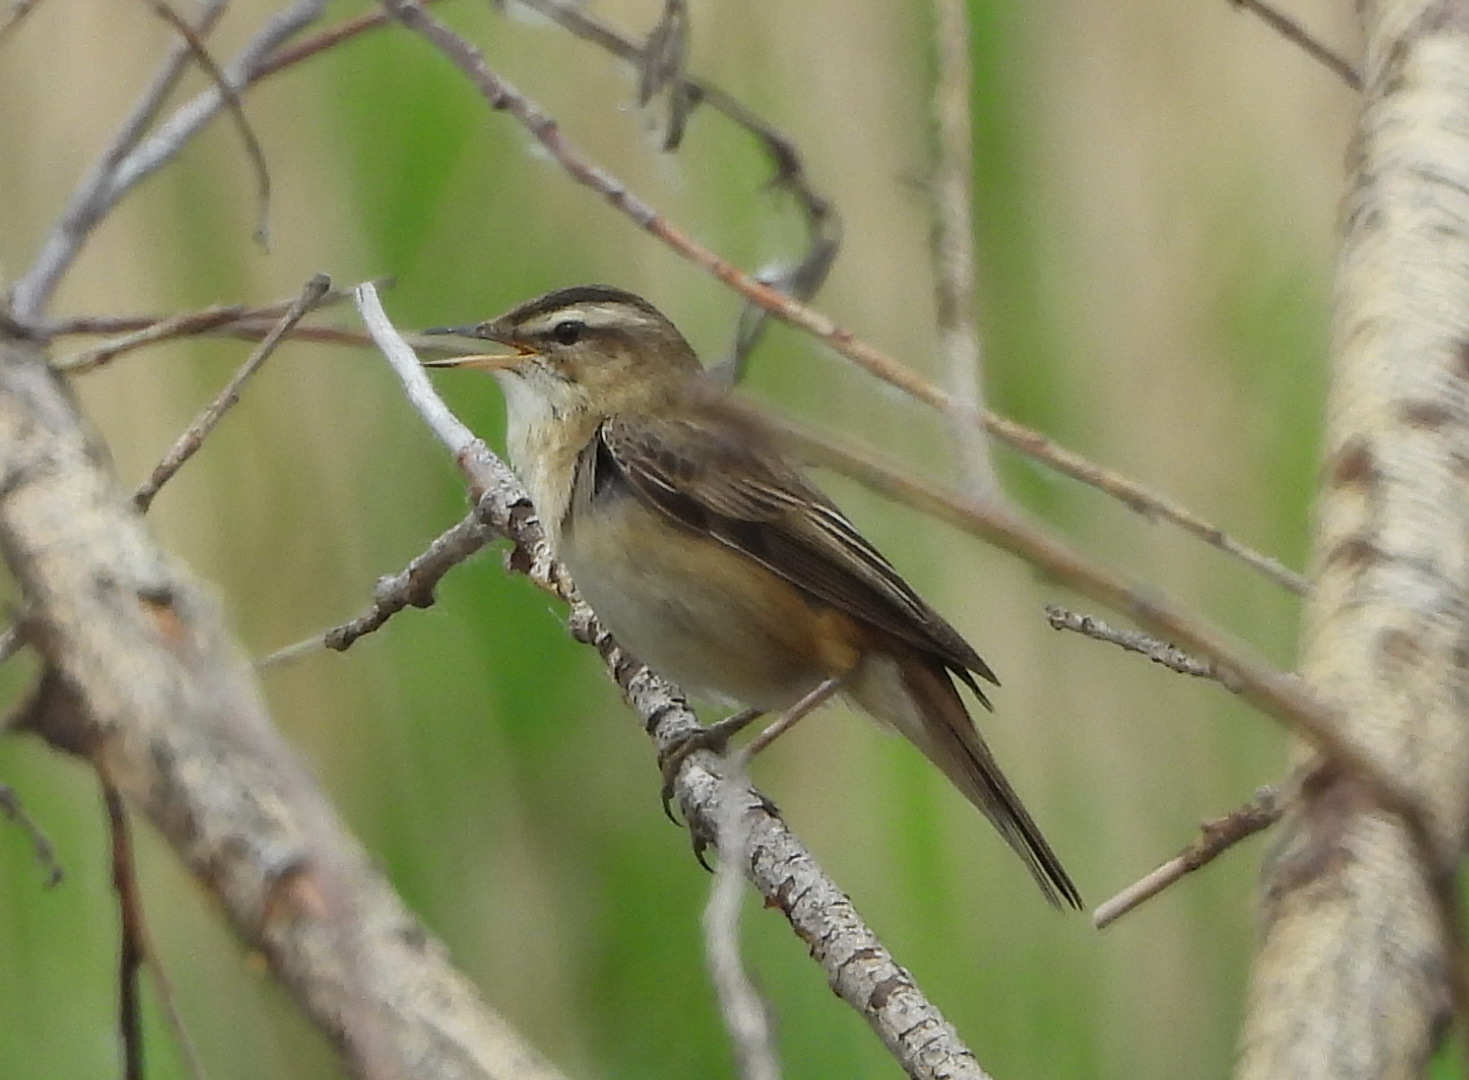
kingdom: Animalia
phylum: Chordata
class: Aves
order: Passeriformes
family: Acrocephalidae
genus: Acrocephalus
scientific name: Acrocephalus schoenobaenus
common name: Sedge warbler
